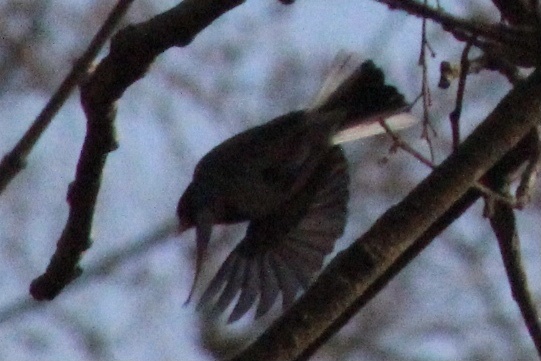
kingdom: Animalia
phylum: Chordata
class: Aves
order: Passeriformes
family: Passerellidae
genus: Junco
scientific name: Junco hyemalis
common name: Dark-eyed junco
